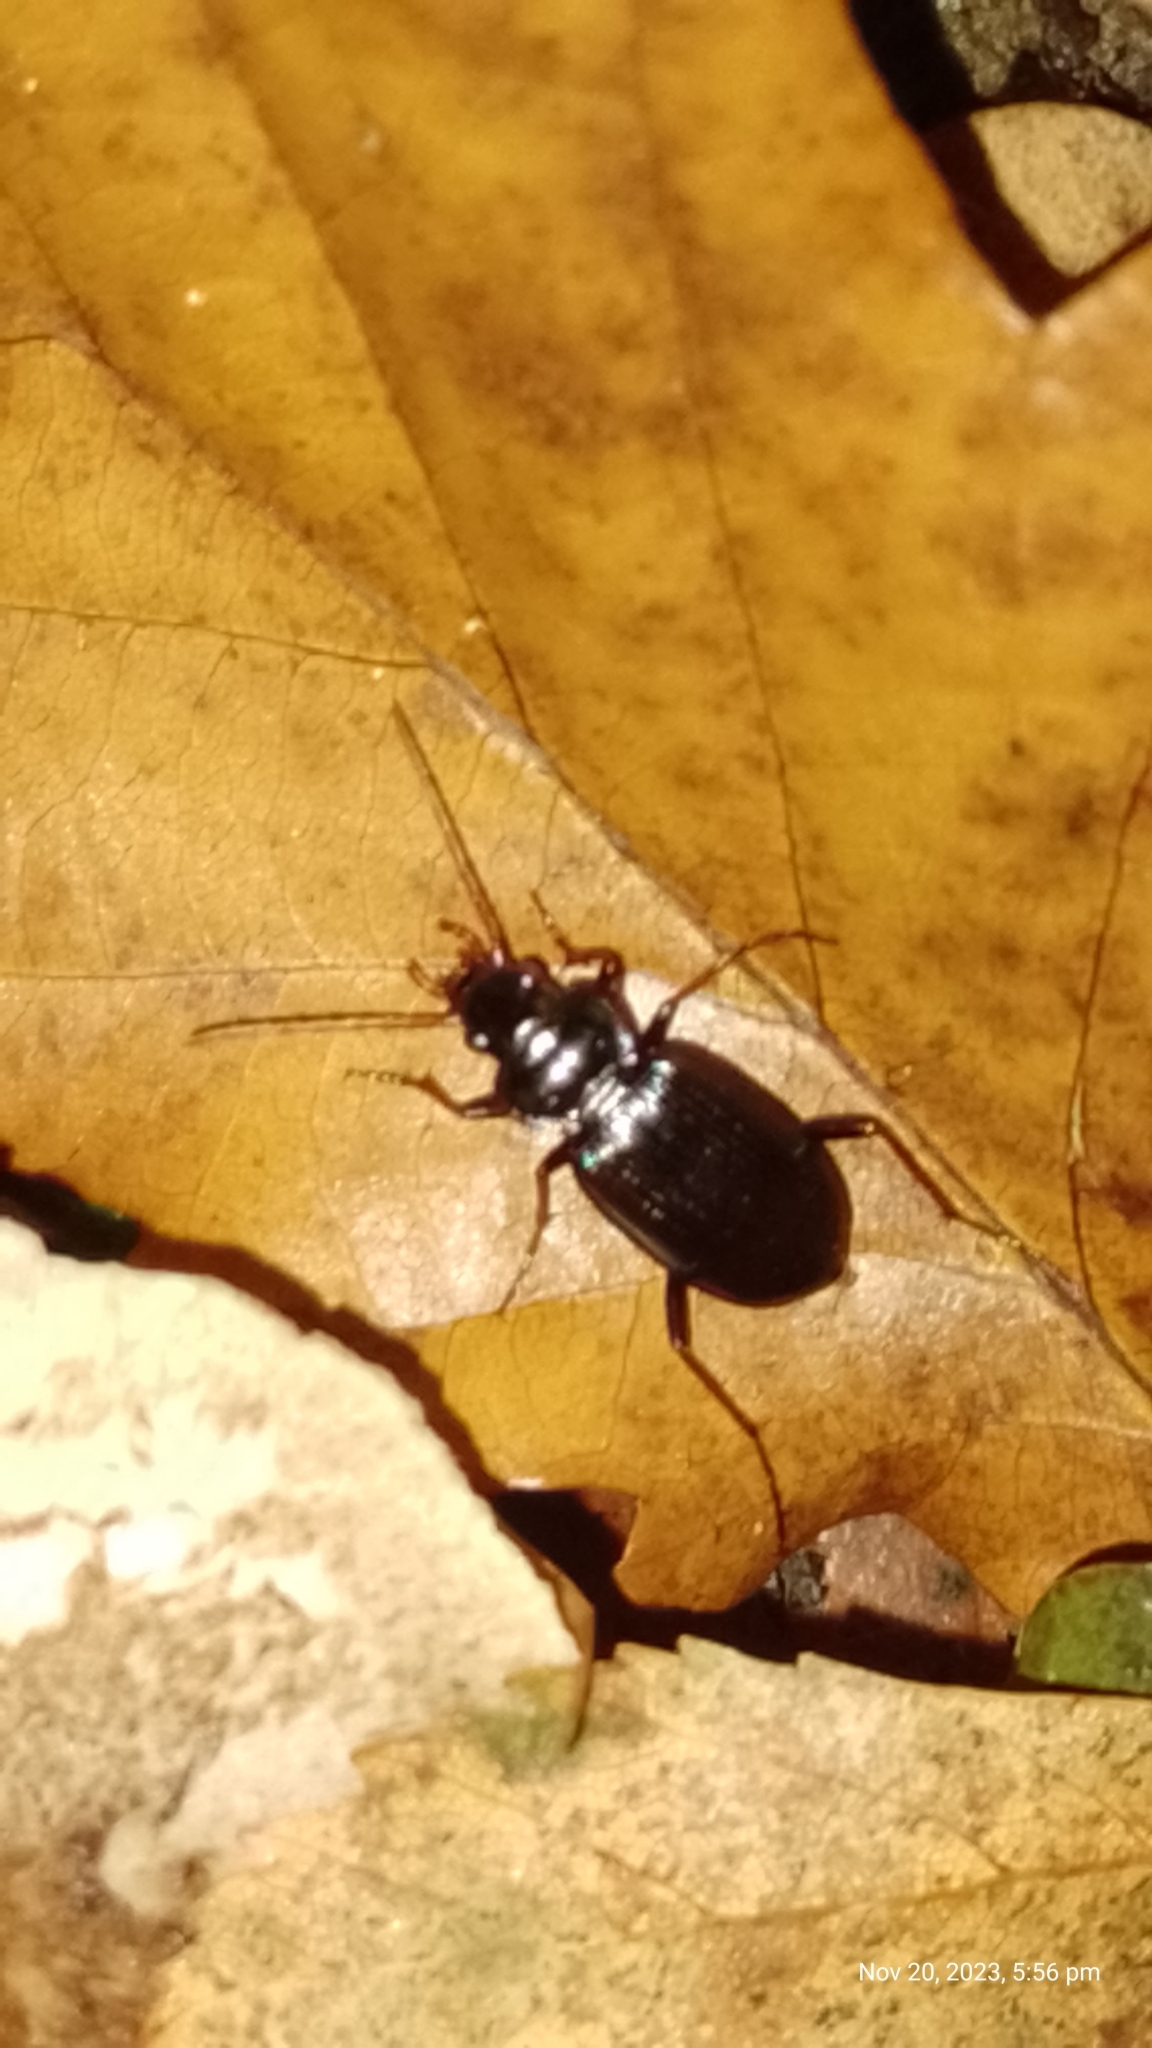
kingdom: Animalia
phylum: Arthropoda
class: Insecta
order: Coleoptera
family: Carabidae
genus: Nebria
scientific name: Nebria brevicollis
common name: Short-necked gazelle beetle
